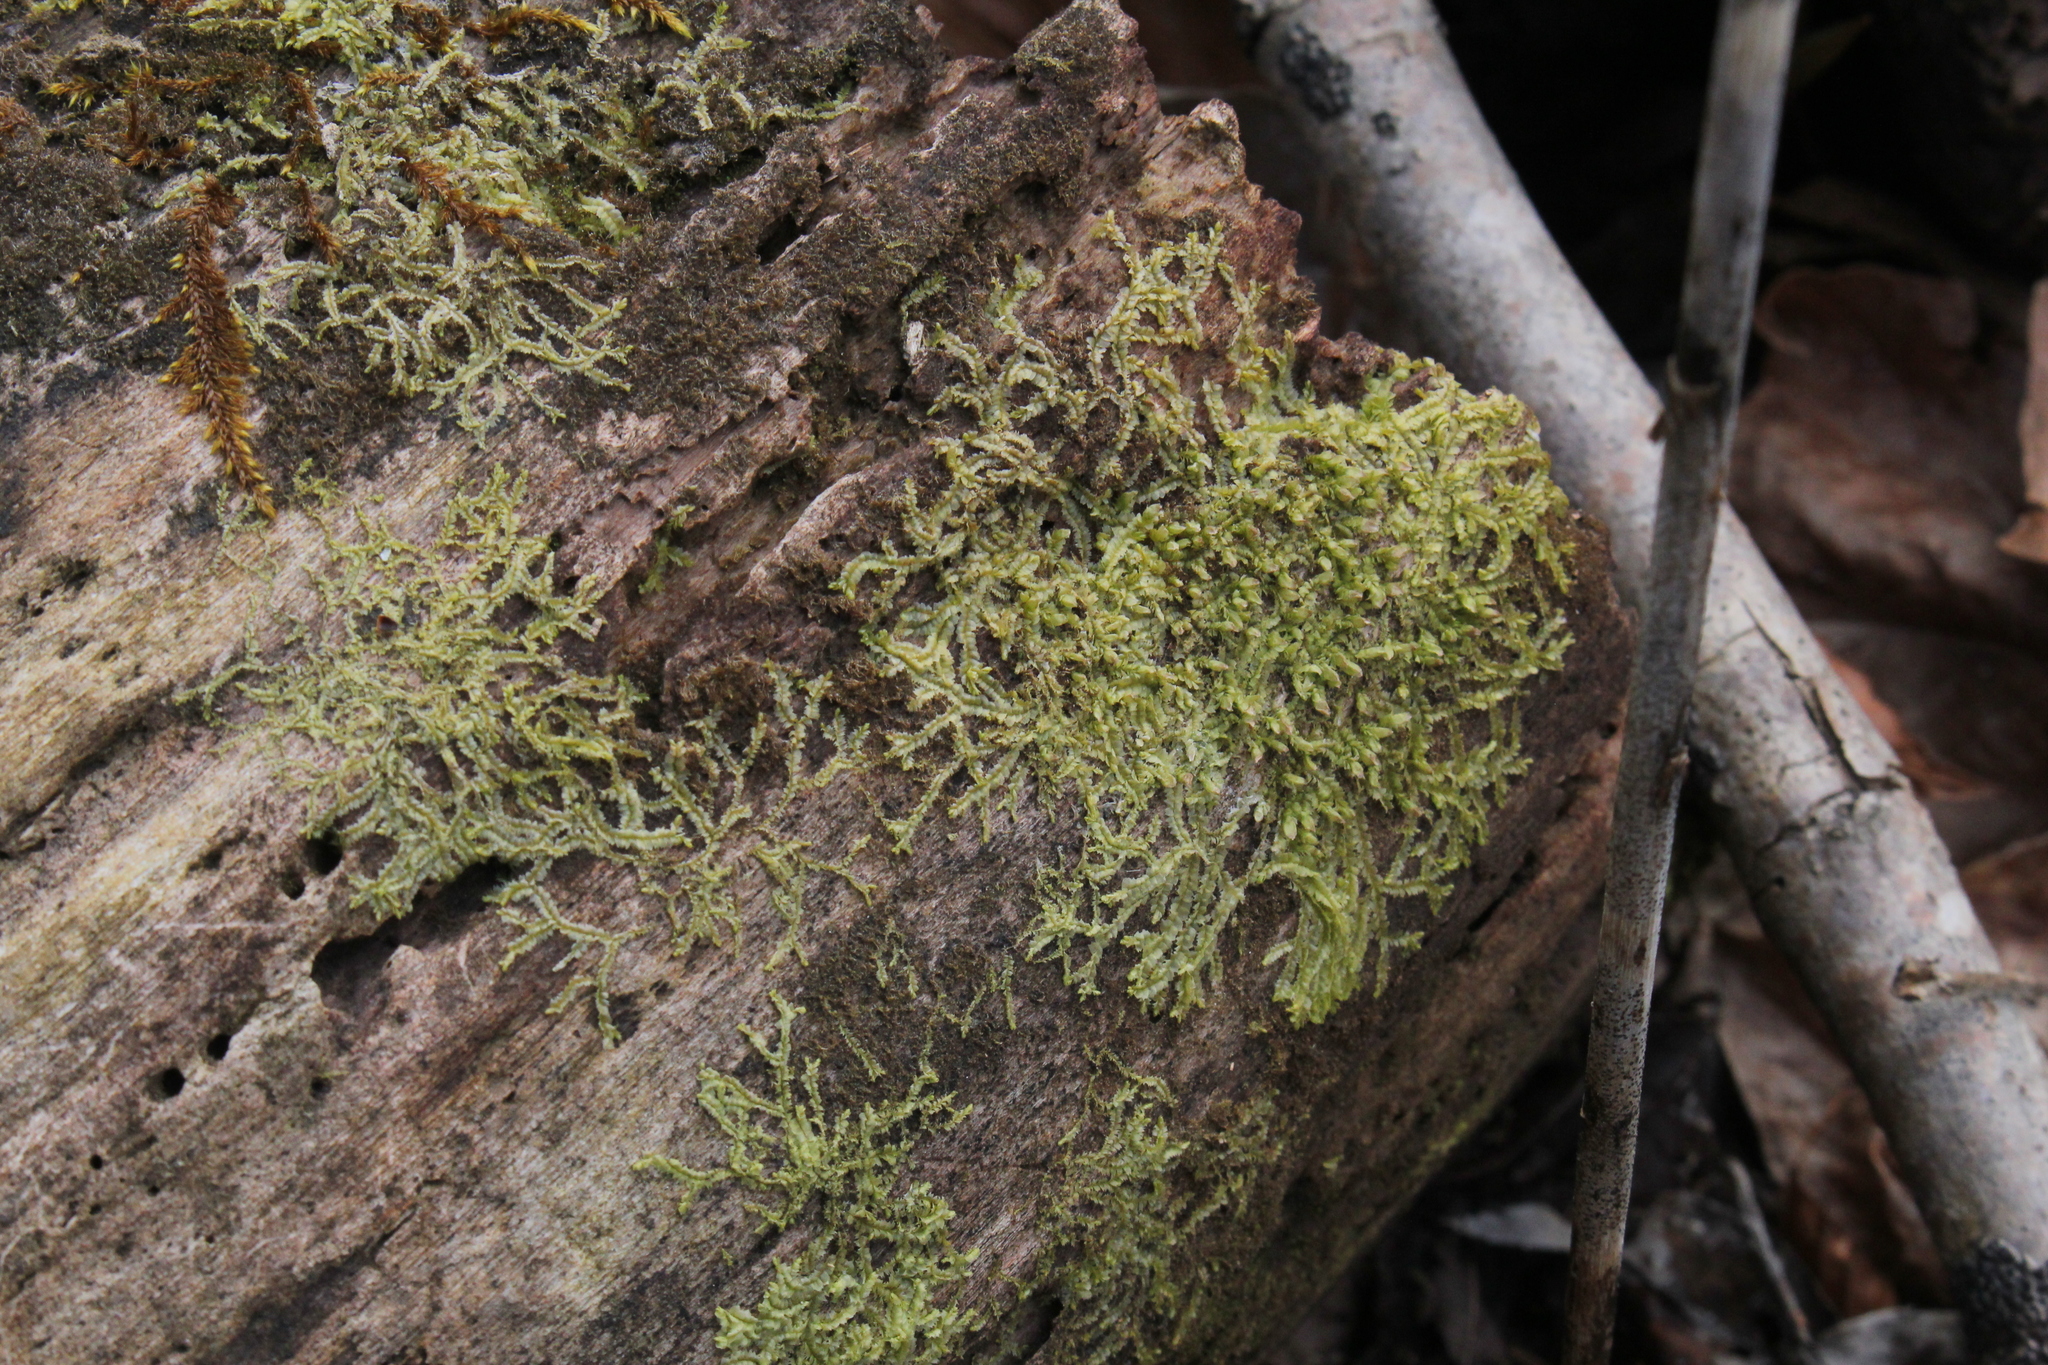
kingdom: Plantae
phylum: Marchantiophyta
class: Jungermanniopsida
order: Jungermanniales
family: Lophocoleaceae
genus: Lophocolea
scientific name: Lophocolea heterophylla
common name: Variable-leaved crestwort
